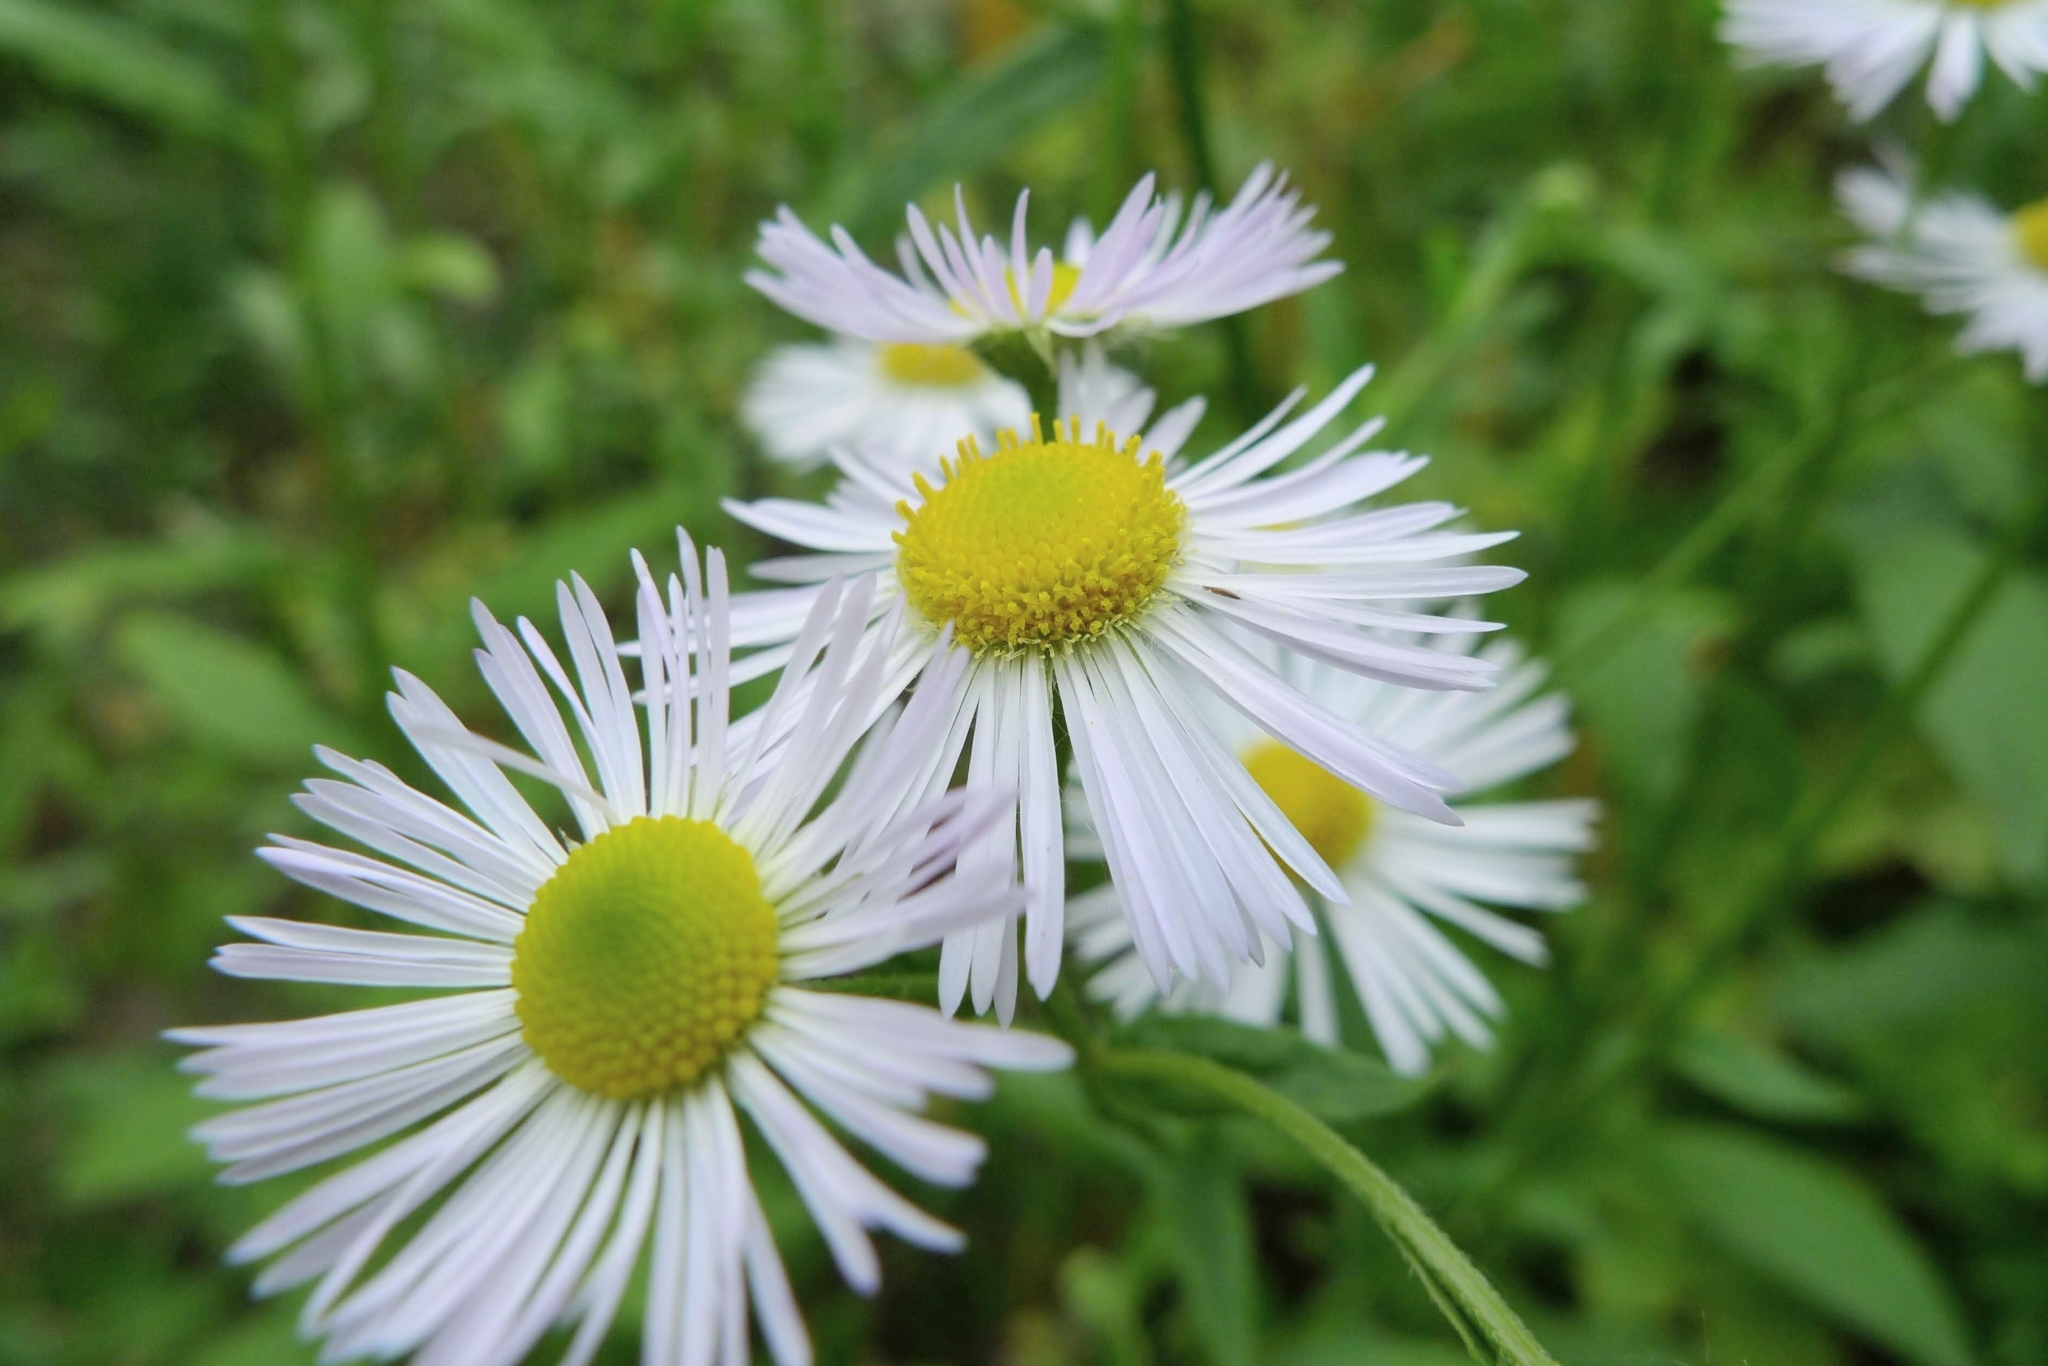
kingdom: Plantae
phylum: Tracheophyta
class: Magnoliopsida
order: Asterales
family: Asteraceae
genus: Erigeron
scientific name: Erigeron annuus
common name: Tall fleabane
